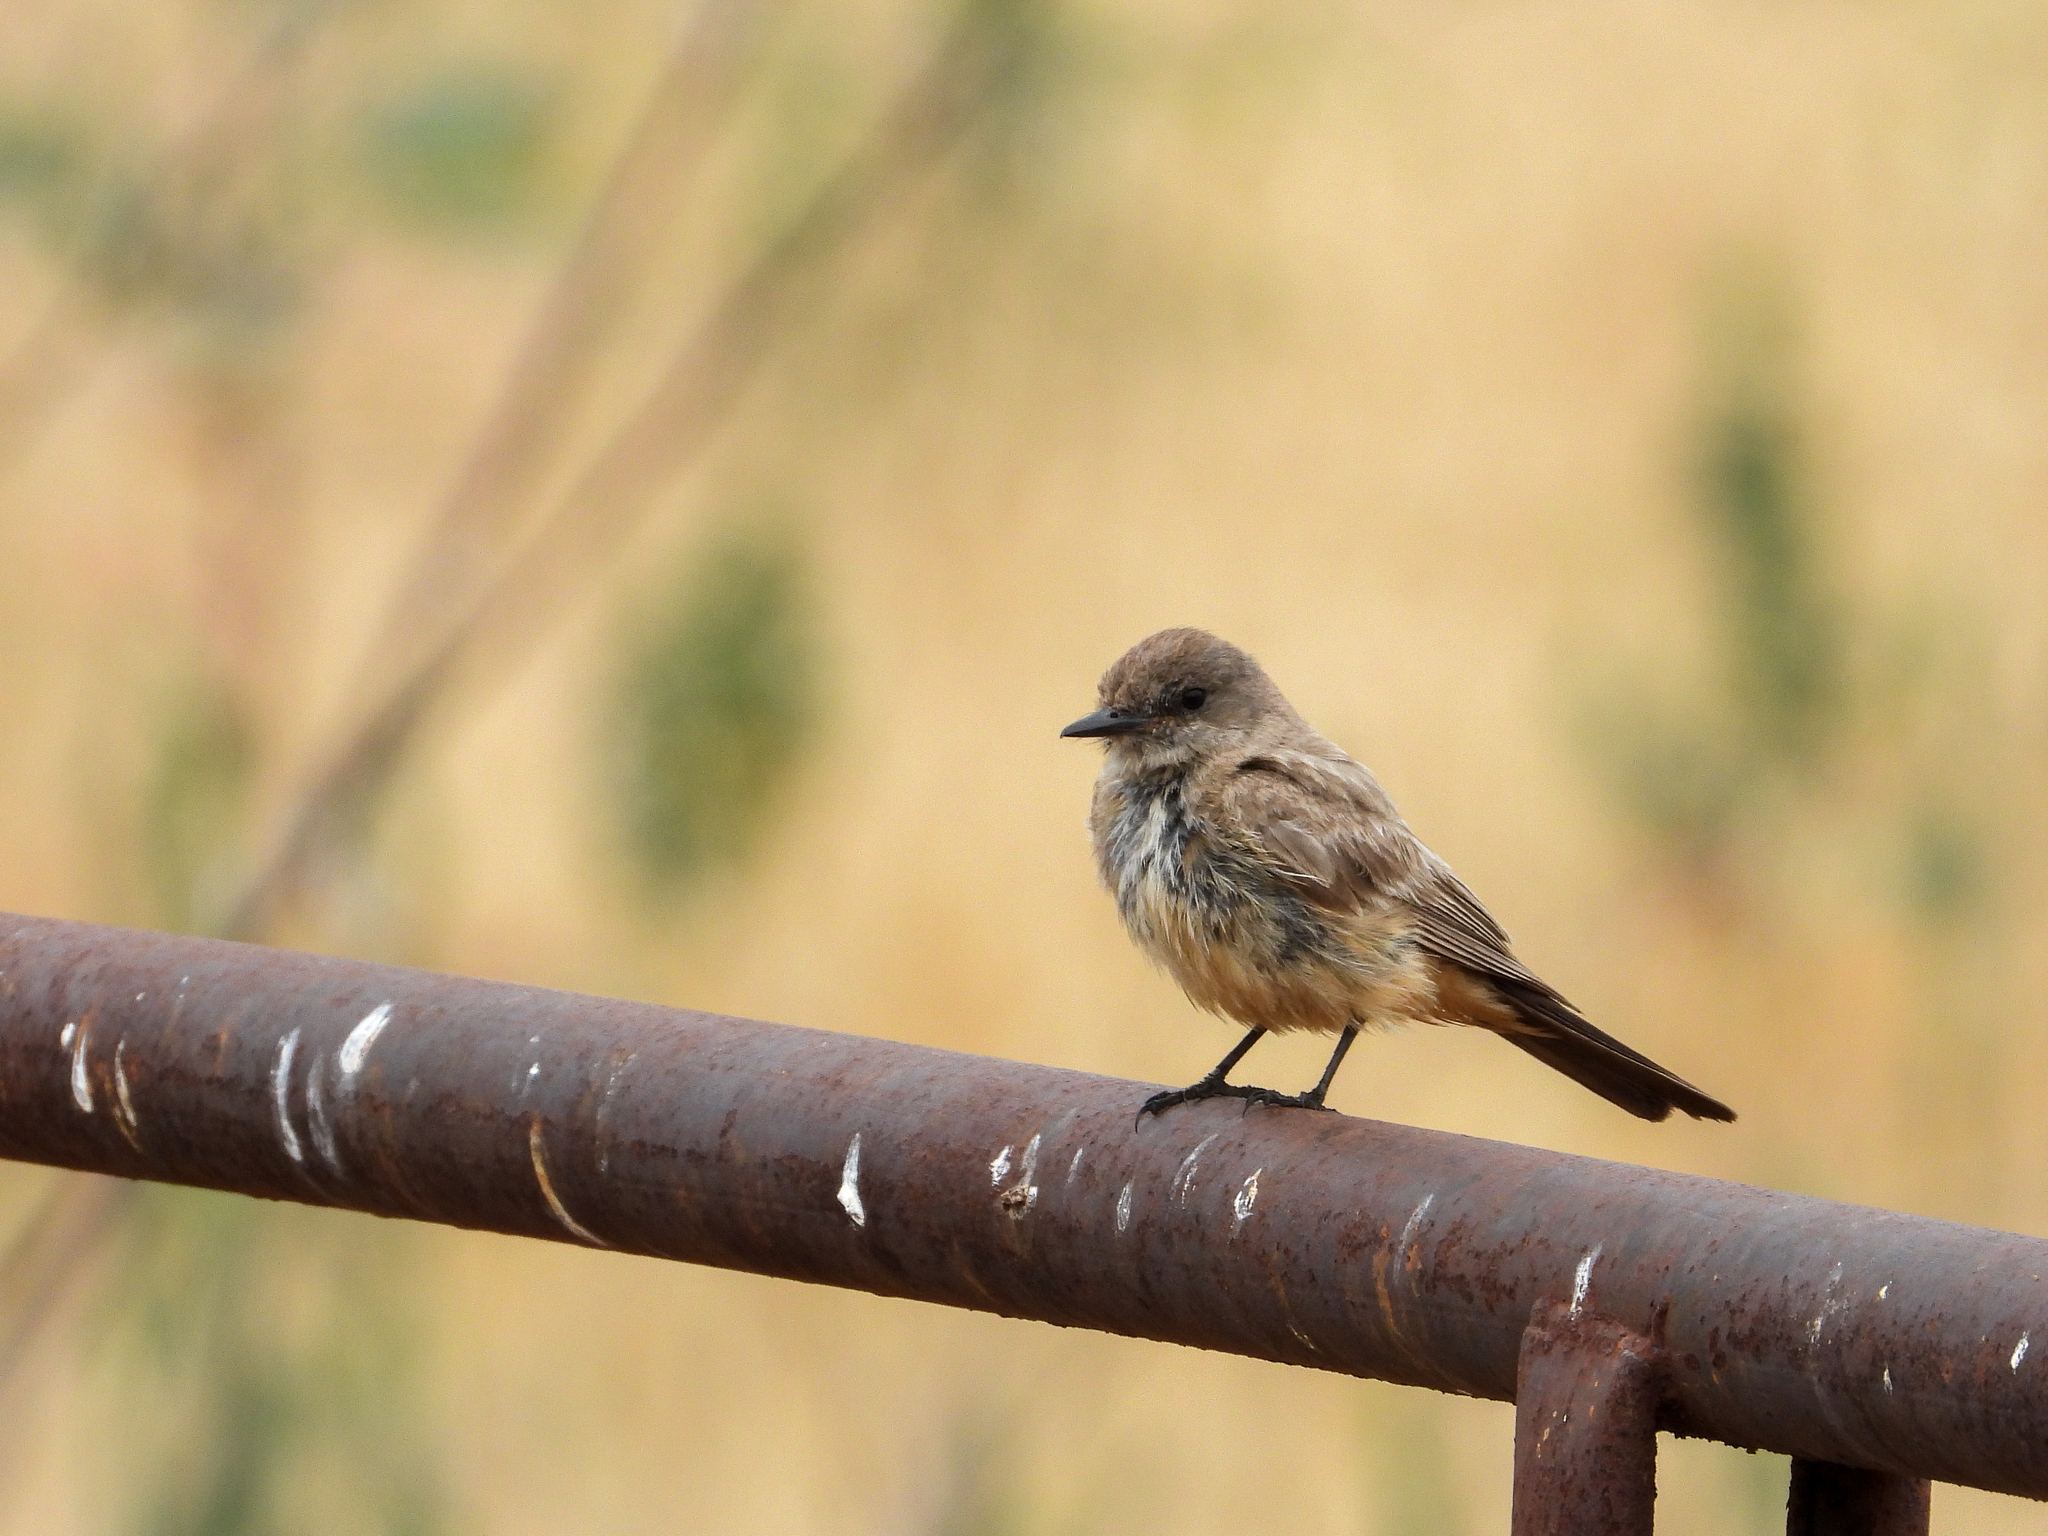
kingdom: Animalia
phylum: Chordata
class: Aves
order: Passeriformes
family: Tyrannidae
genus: Sayornis
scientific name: Sayornis saya
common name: Say's phoebe
